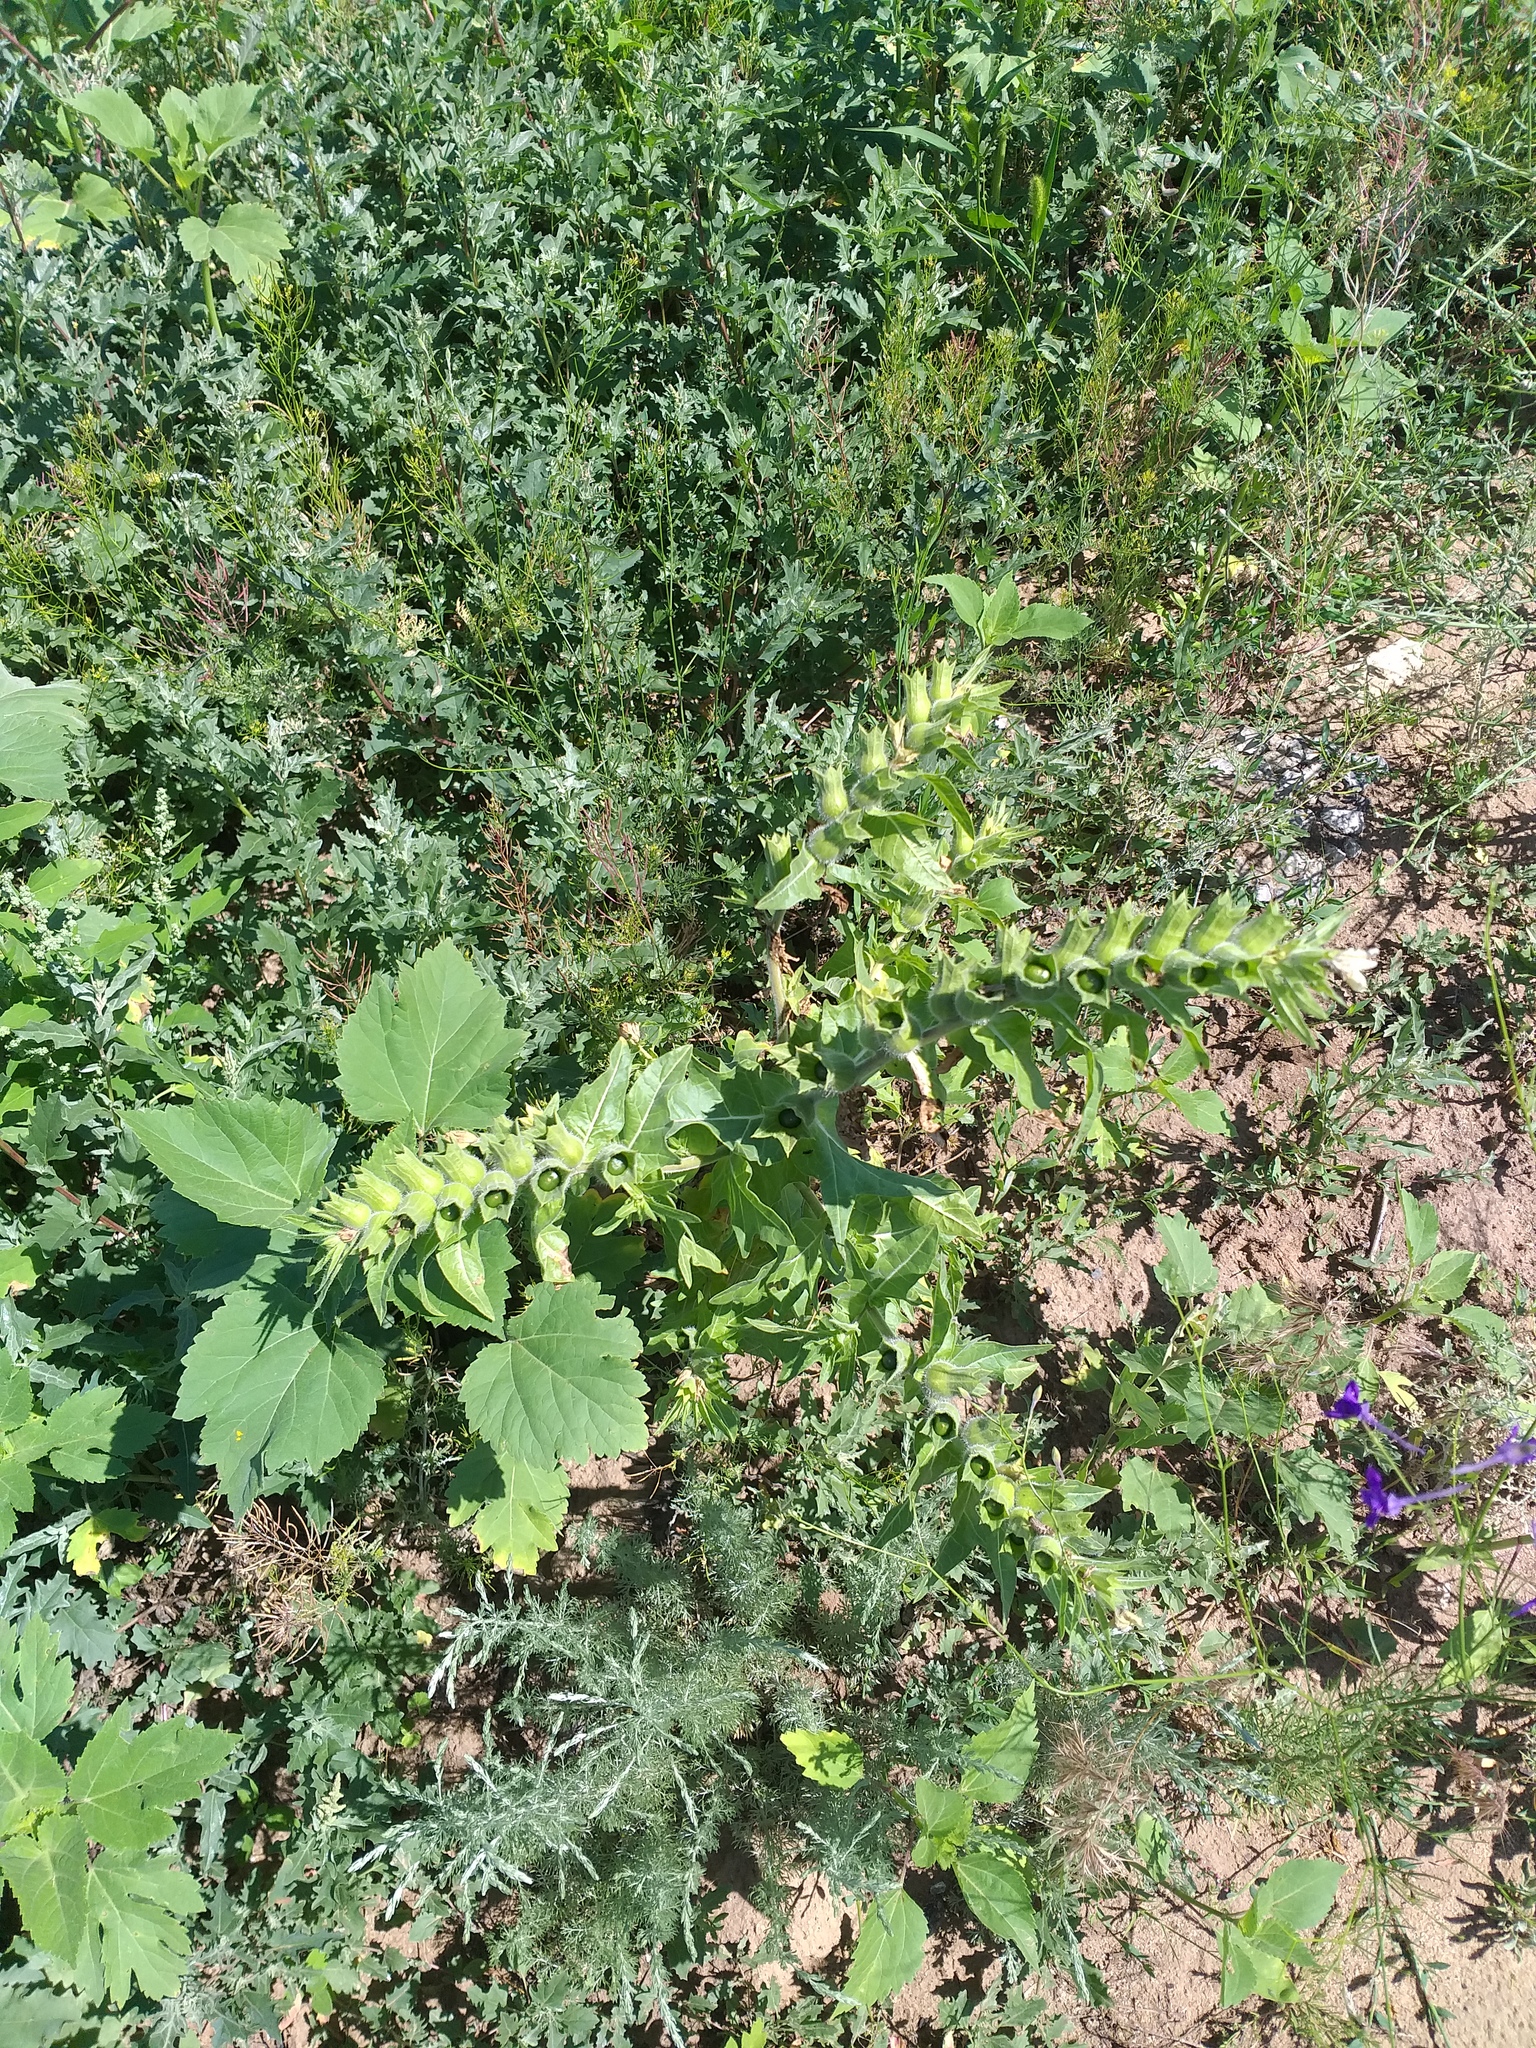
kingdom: Plantae
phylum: Tracheophyta
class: Magnoliopsida
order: Solanales
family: Solanaceae
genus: Hyoscyamus
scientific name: Hyoscyamus niger
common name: Henbane
